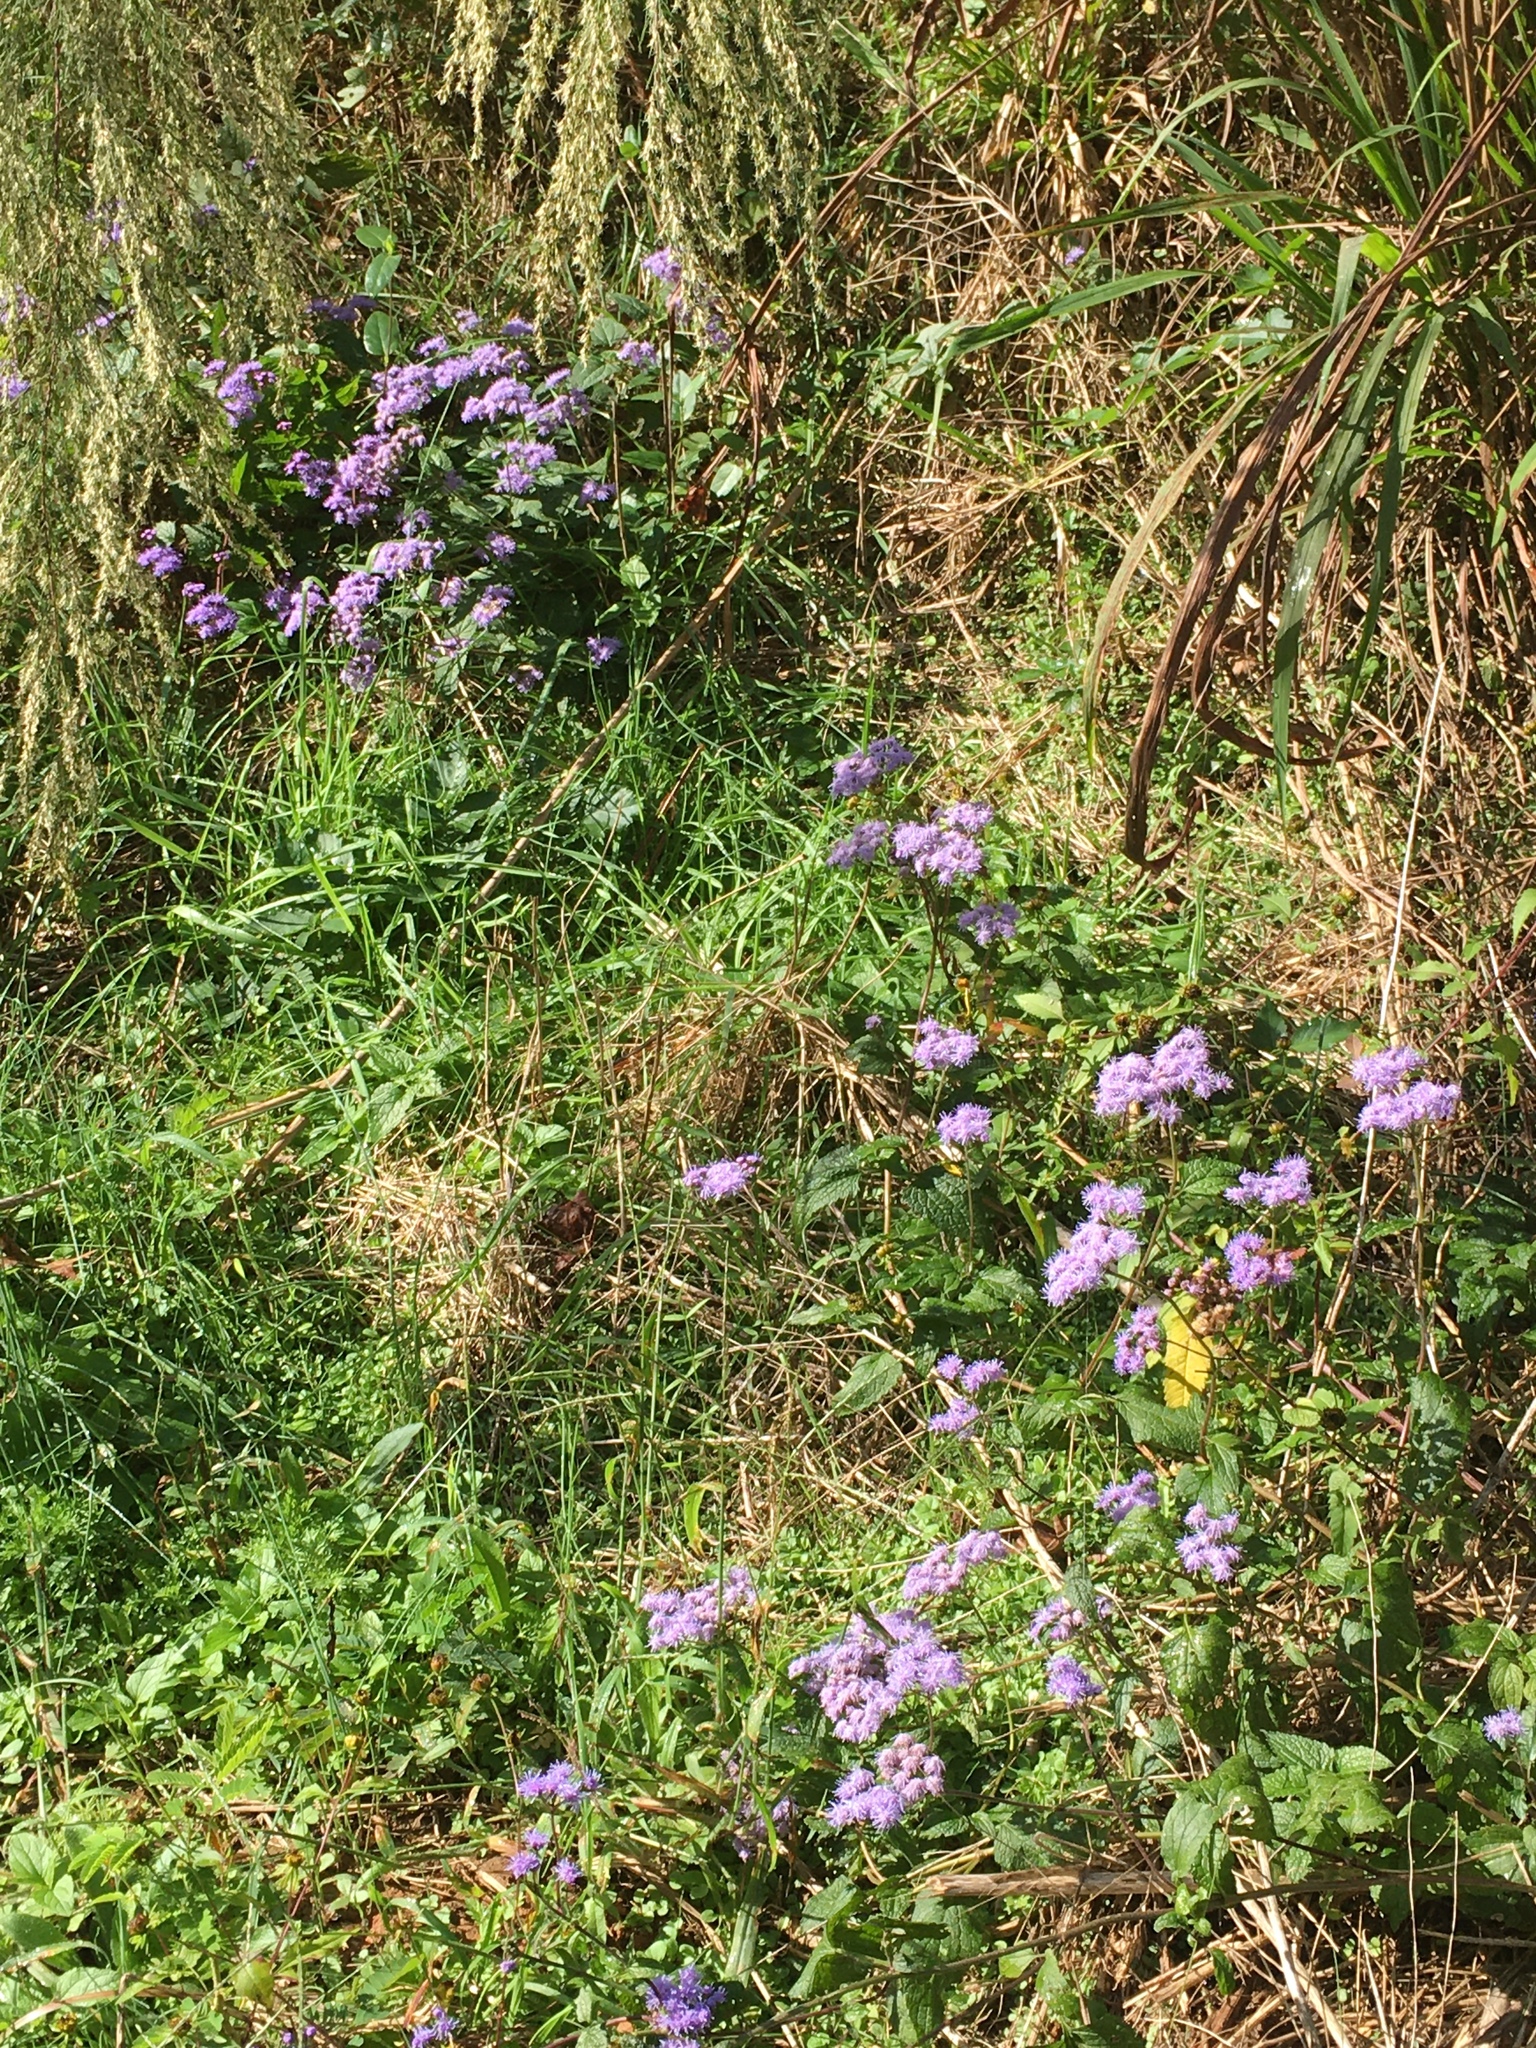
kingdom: Plantae
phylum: Tracheophyta
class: Magnoliopsida
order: Asterales
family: Asteraceae
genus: Conoclinium
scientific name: Conoclinium coelestinum
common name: Blue mistflower
